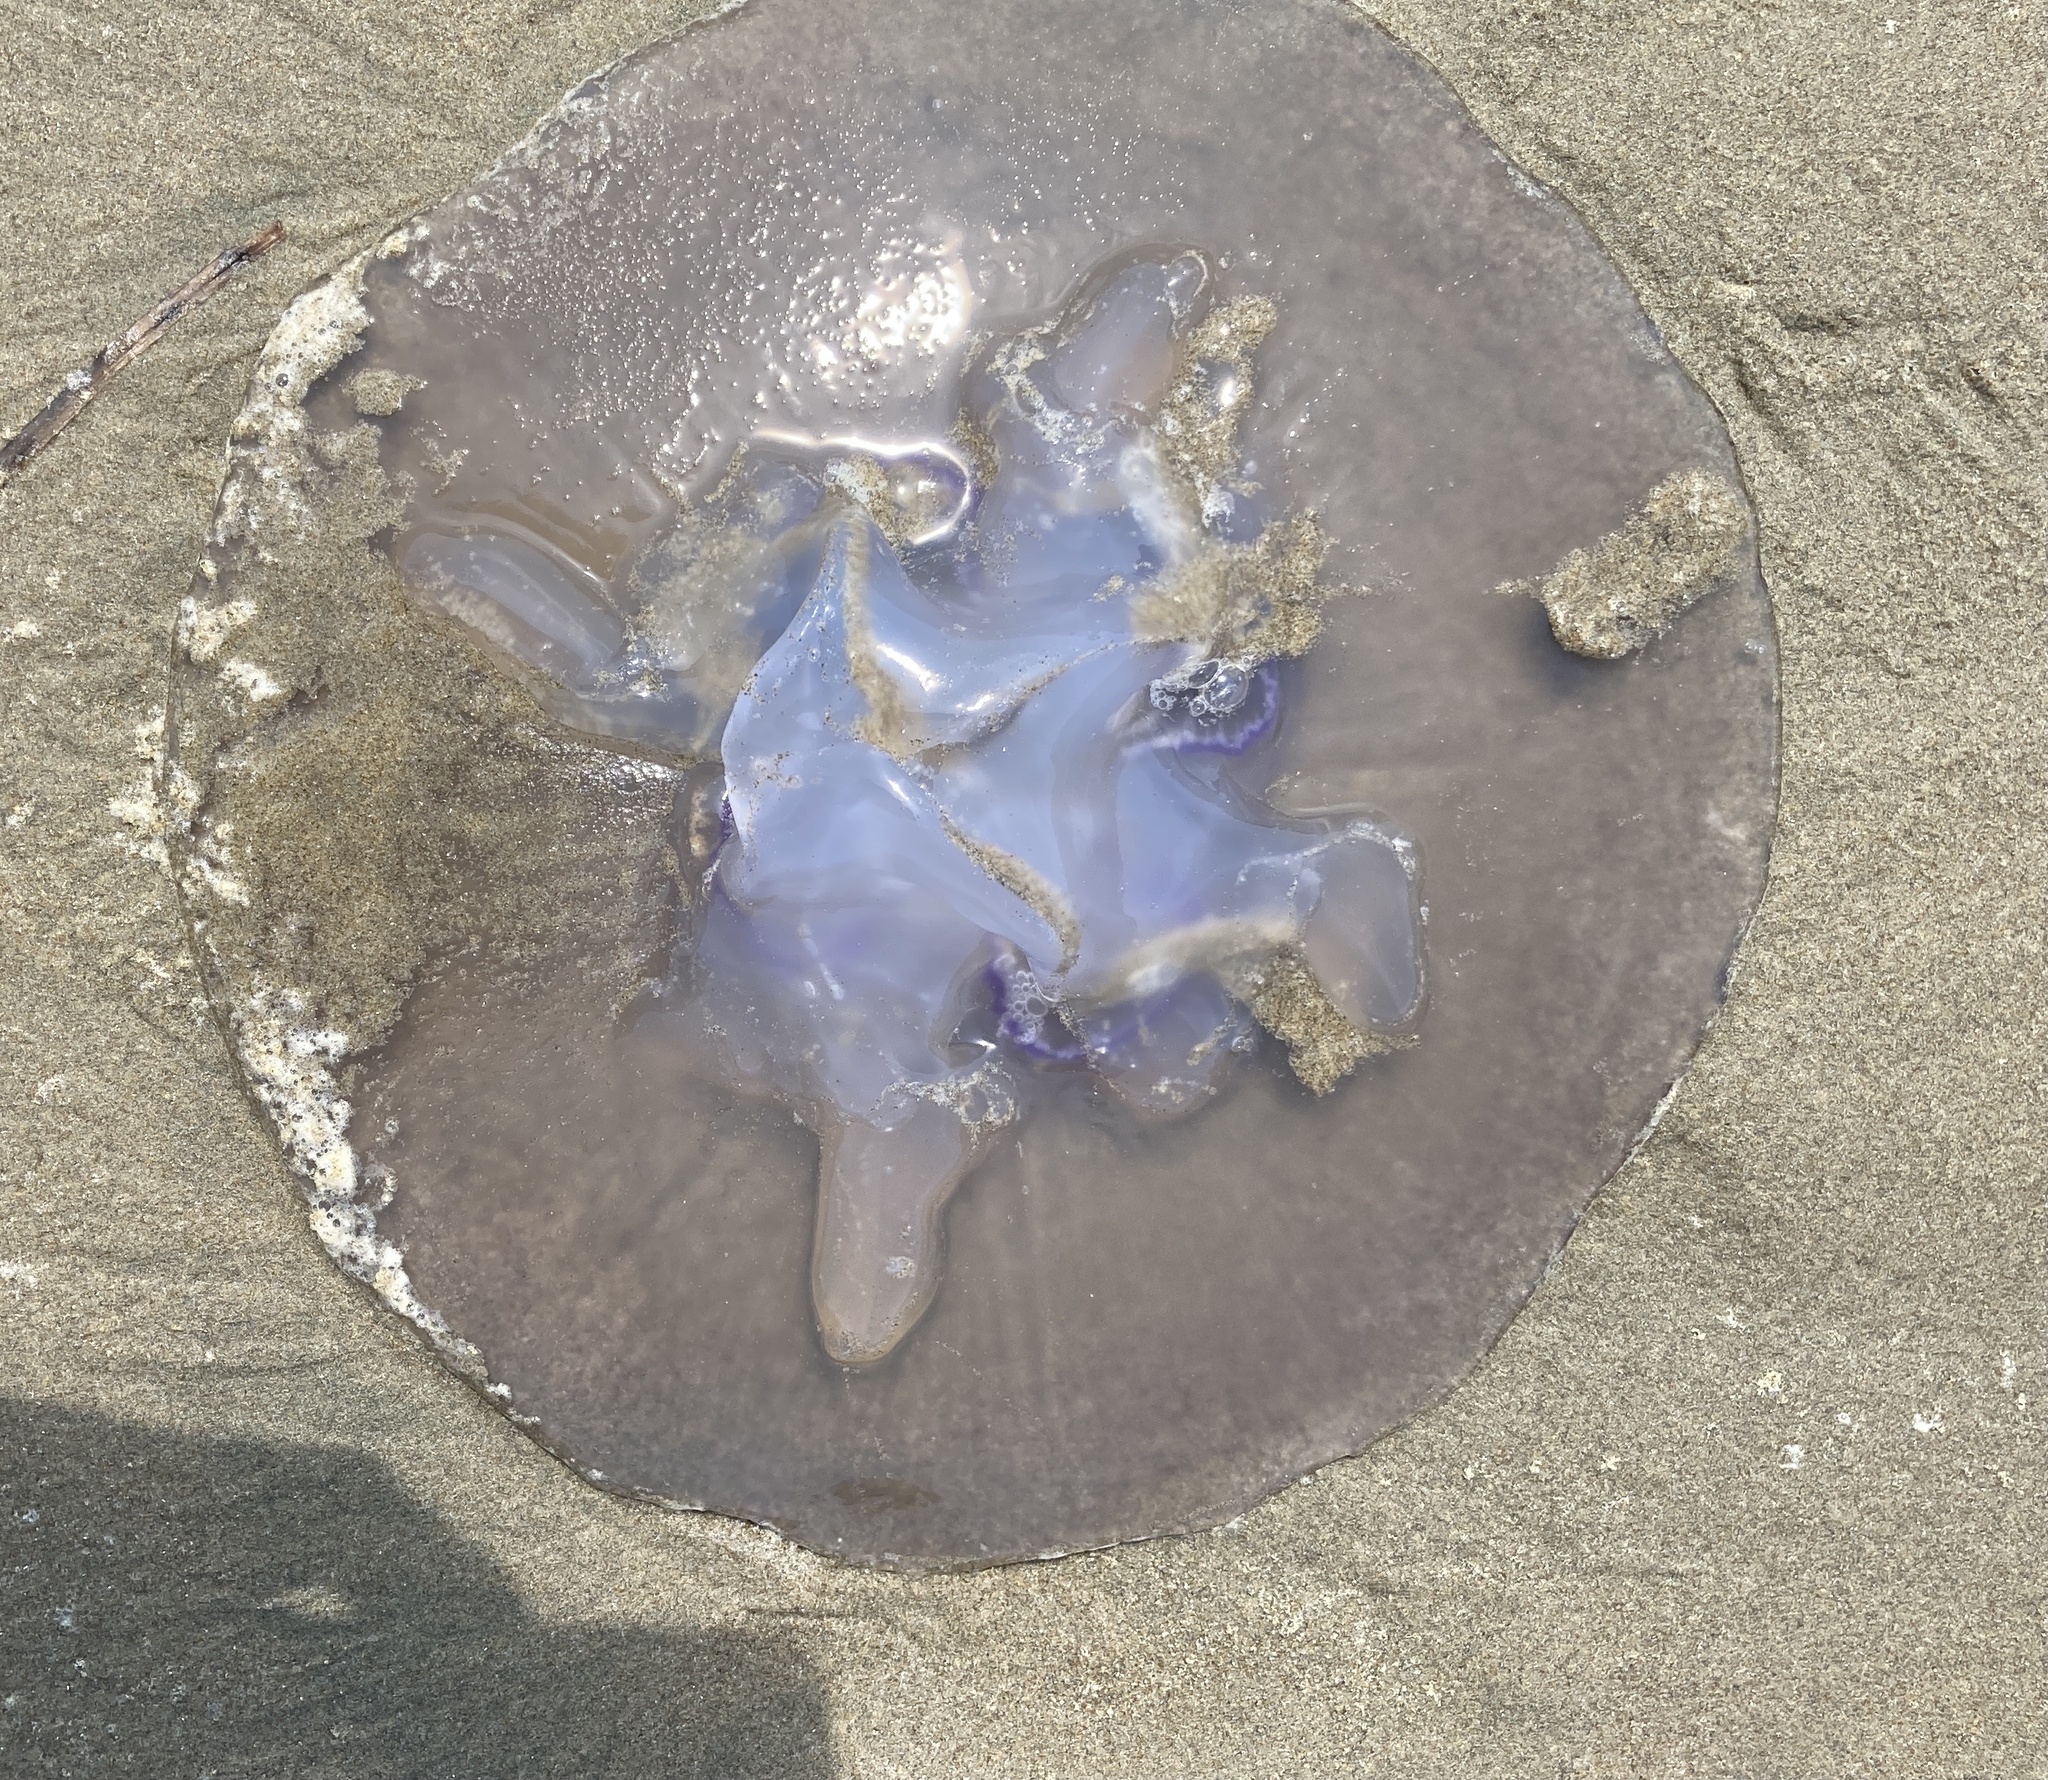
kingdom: Animalia
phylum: Cnidaria
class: Scyphozoa
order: Semaeostomeae
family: Ulmaridae
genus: Aurelia
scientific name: Aurelia labiata
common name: Pacific moon jelly
